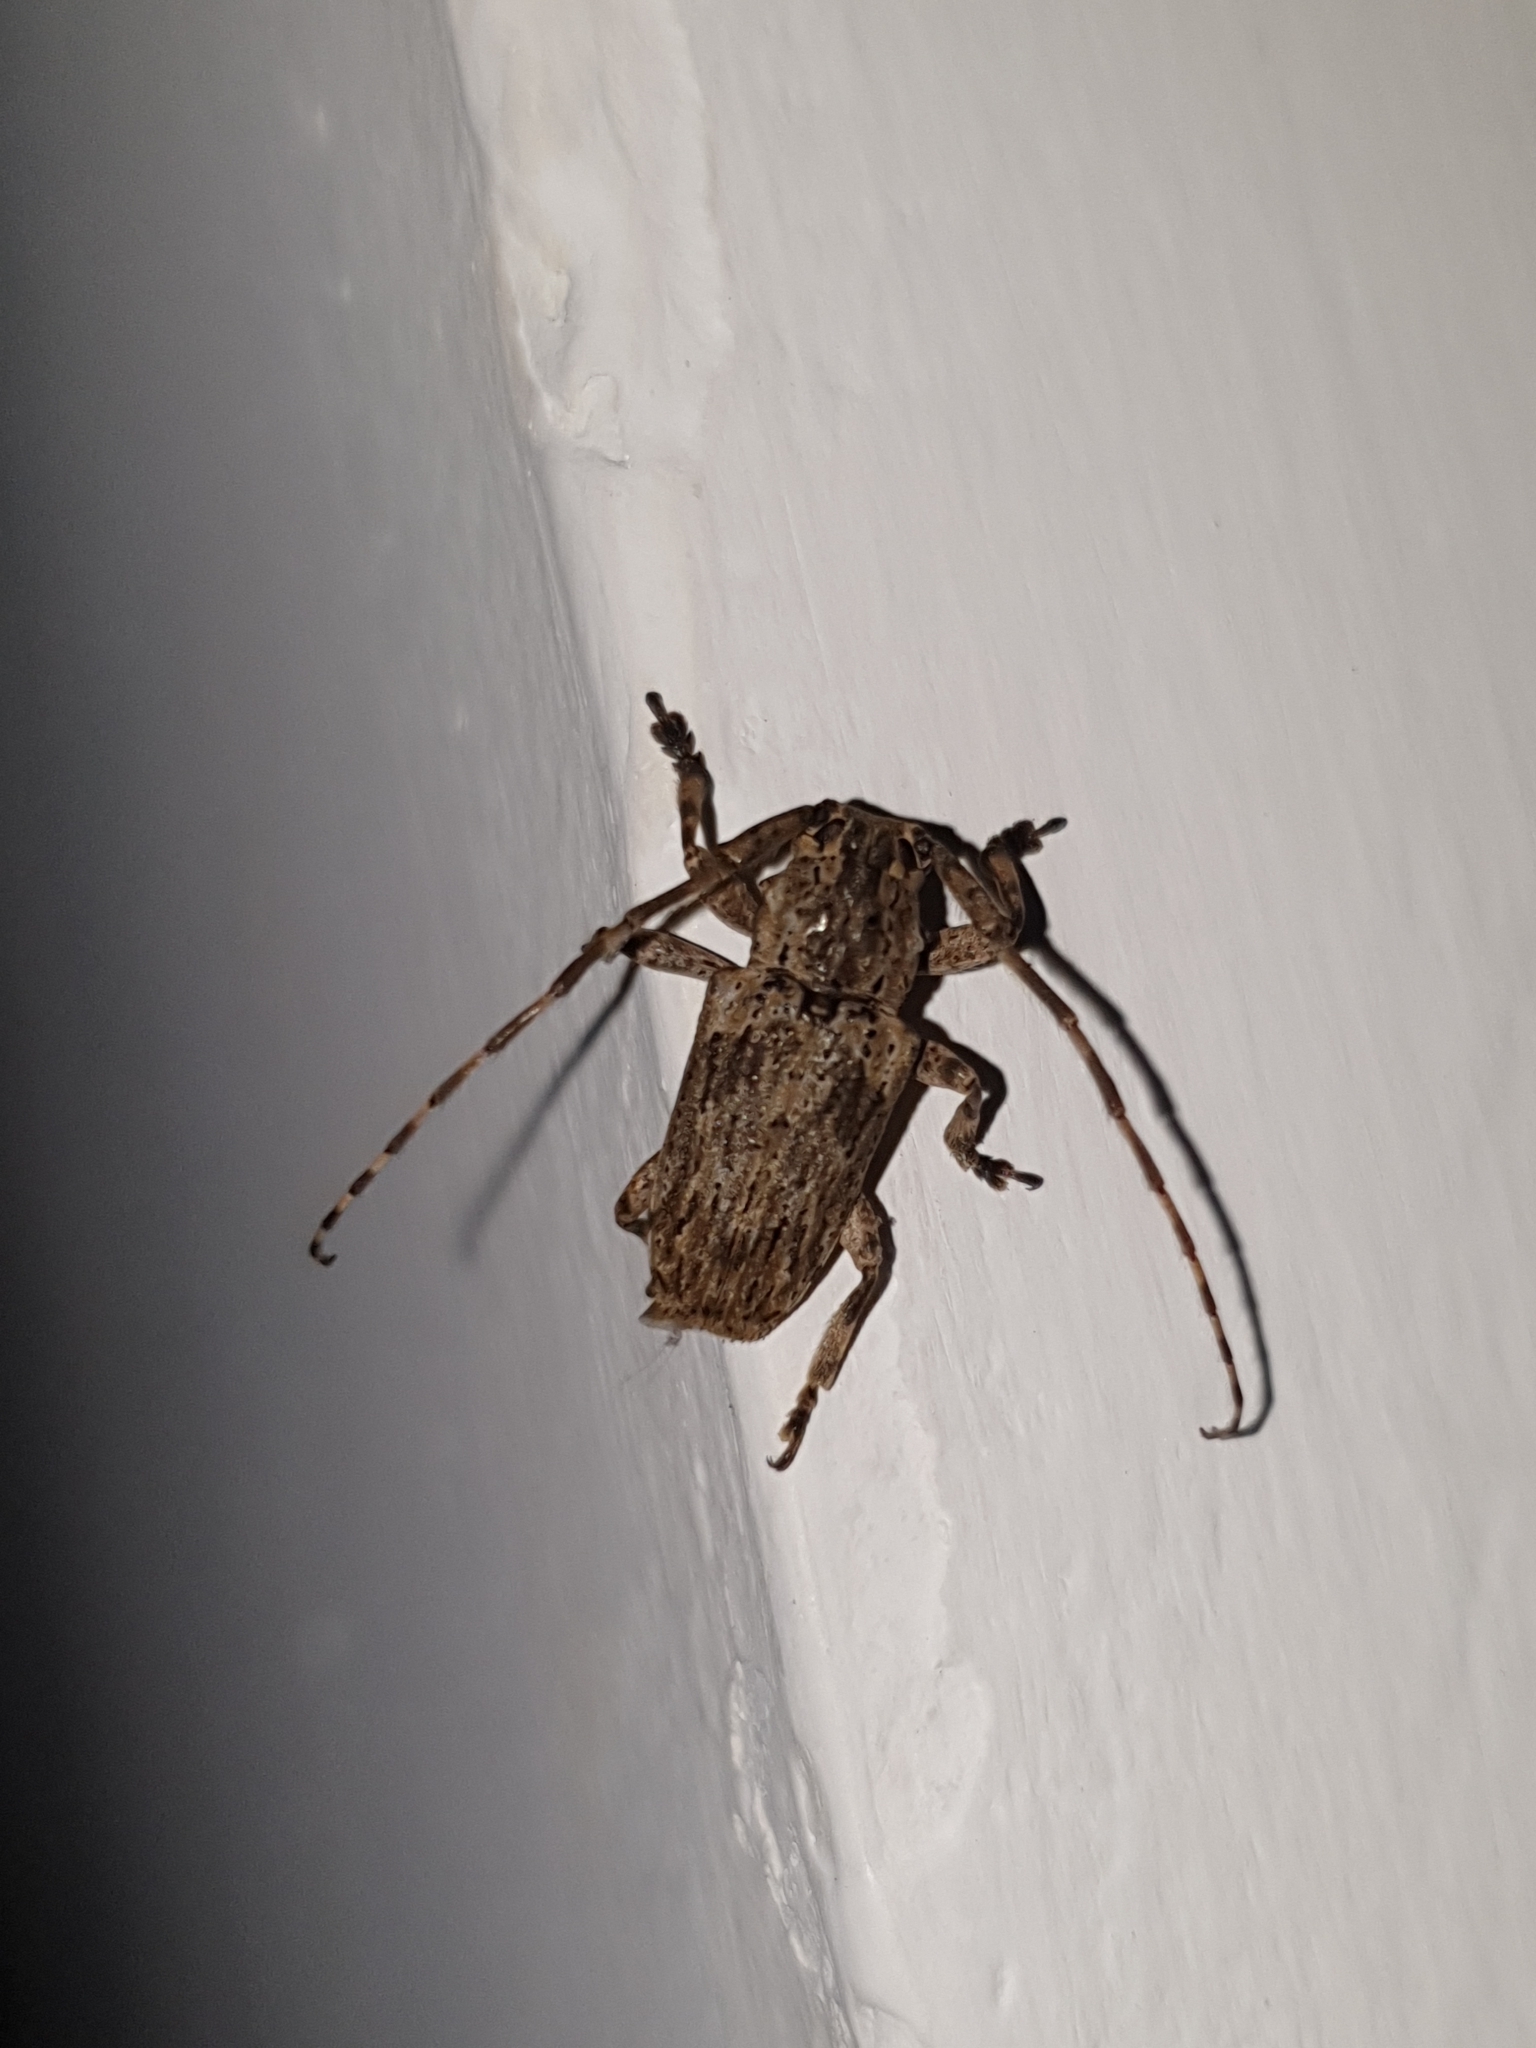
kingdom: Animalia
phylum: Arthropoda
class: Insecta
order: Coleoptera
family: Cerambycidae
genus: Coptops
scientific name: Coptops aedificator
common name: Long-horned beetle
